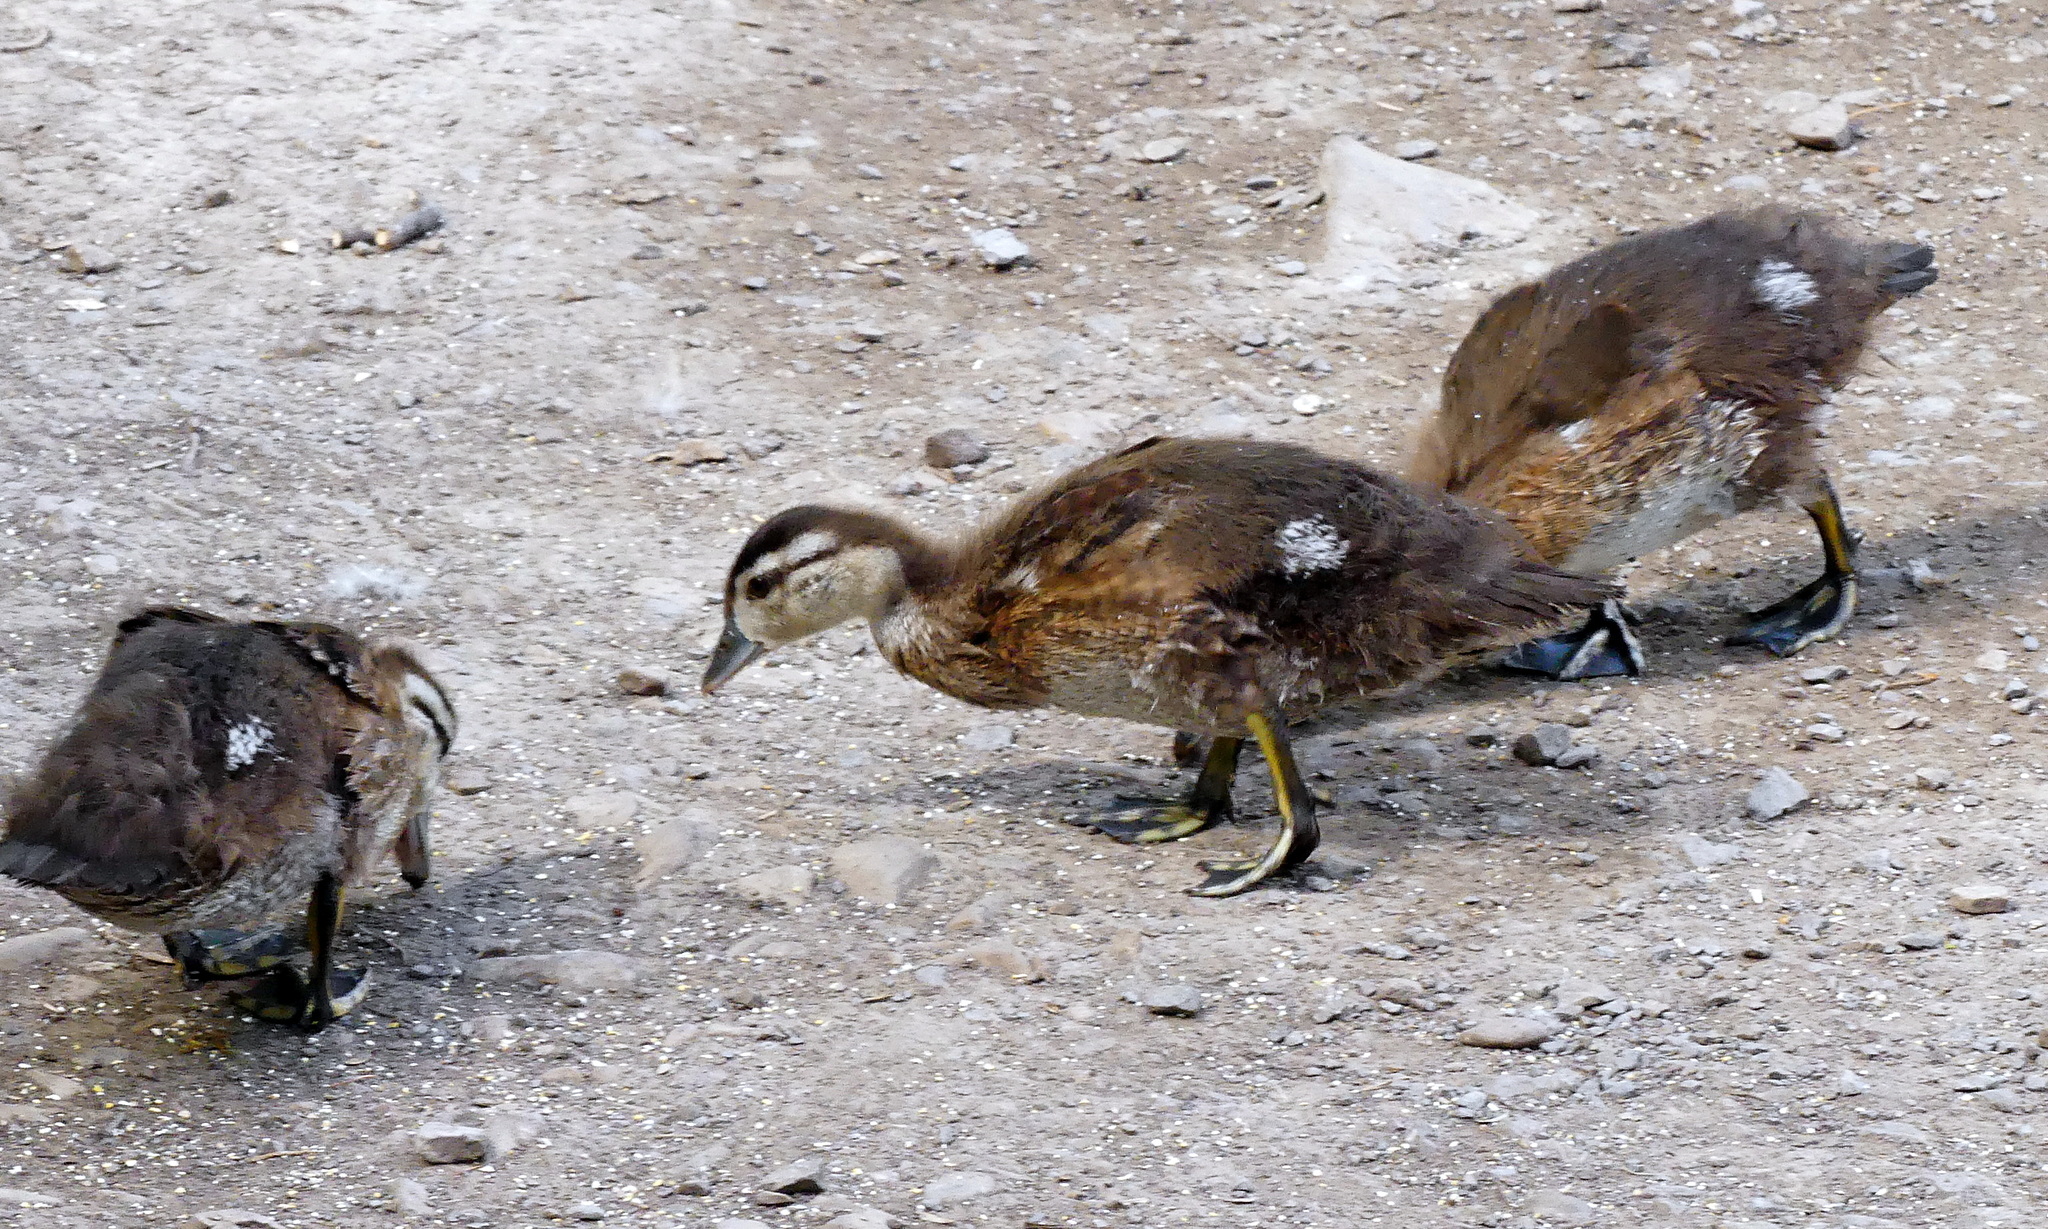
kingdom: Animalia
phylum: Chordata
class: Aves
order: Anseriformes
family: Anatidae
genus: Aix
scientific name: Aix sponsa
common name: Wood duck
